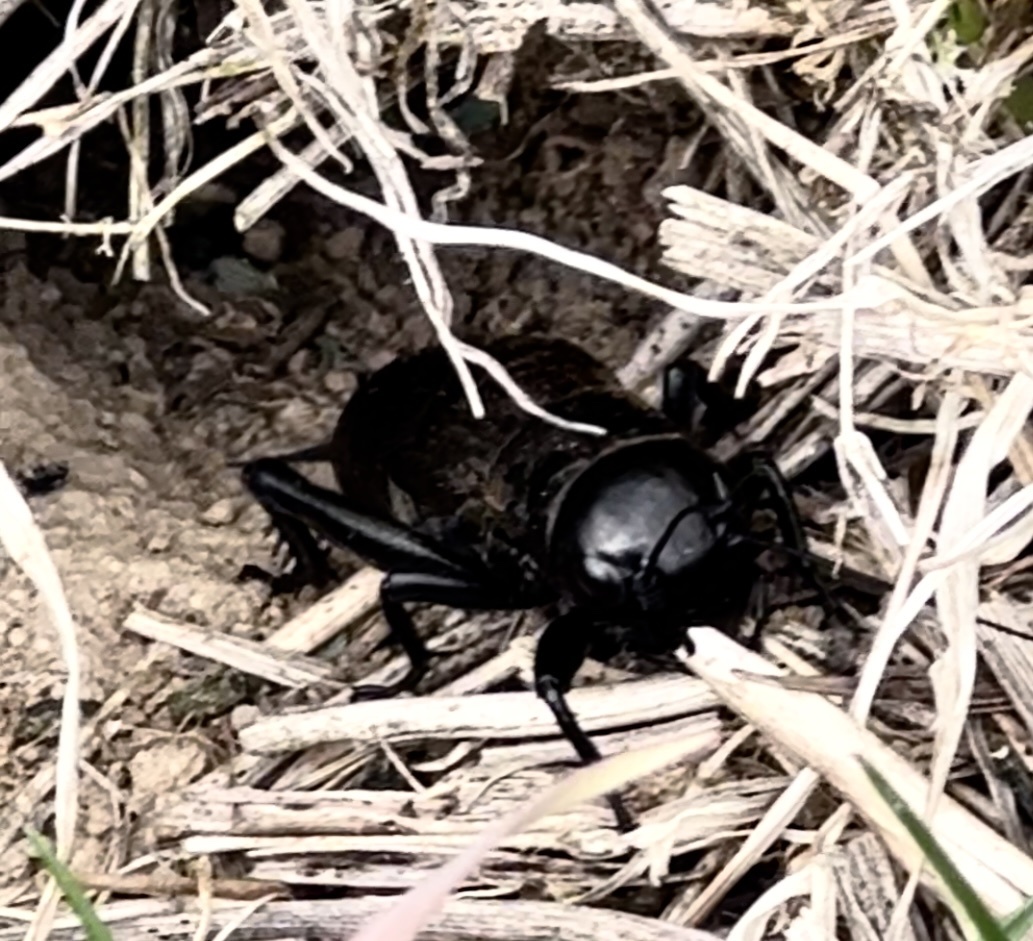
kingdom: Animalia
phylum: Arthropoda
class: Insecta
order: Orthoptera
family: Gryllidae
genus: Gryllus
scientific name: Gryllus campestris
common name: Field cricket
